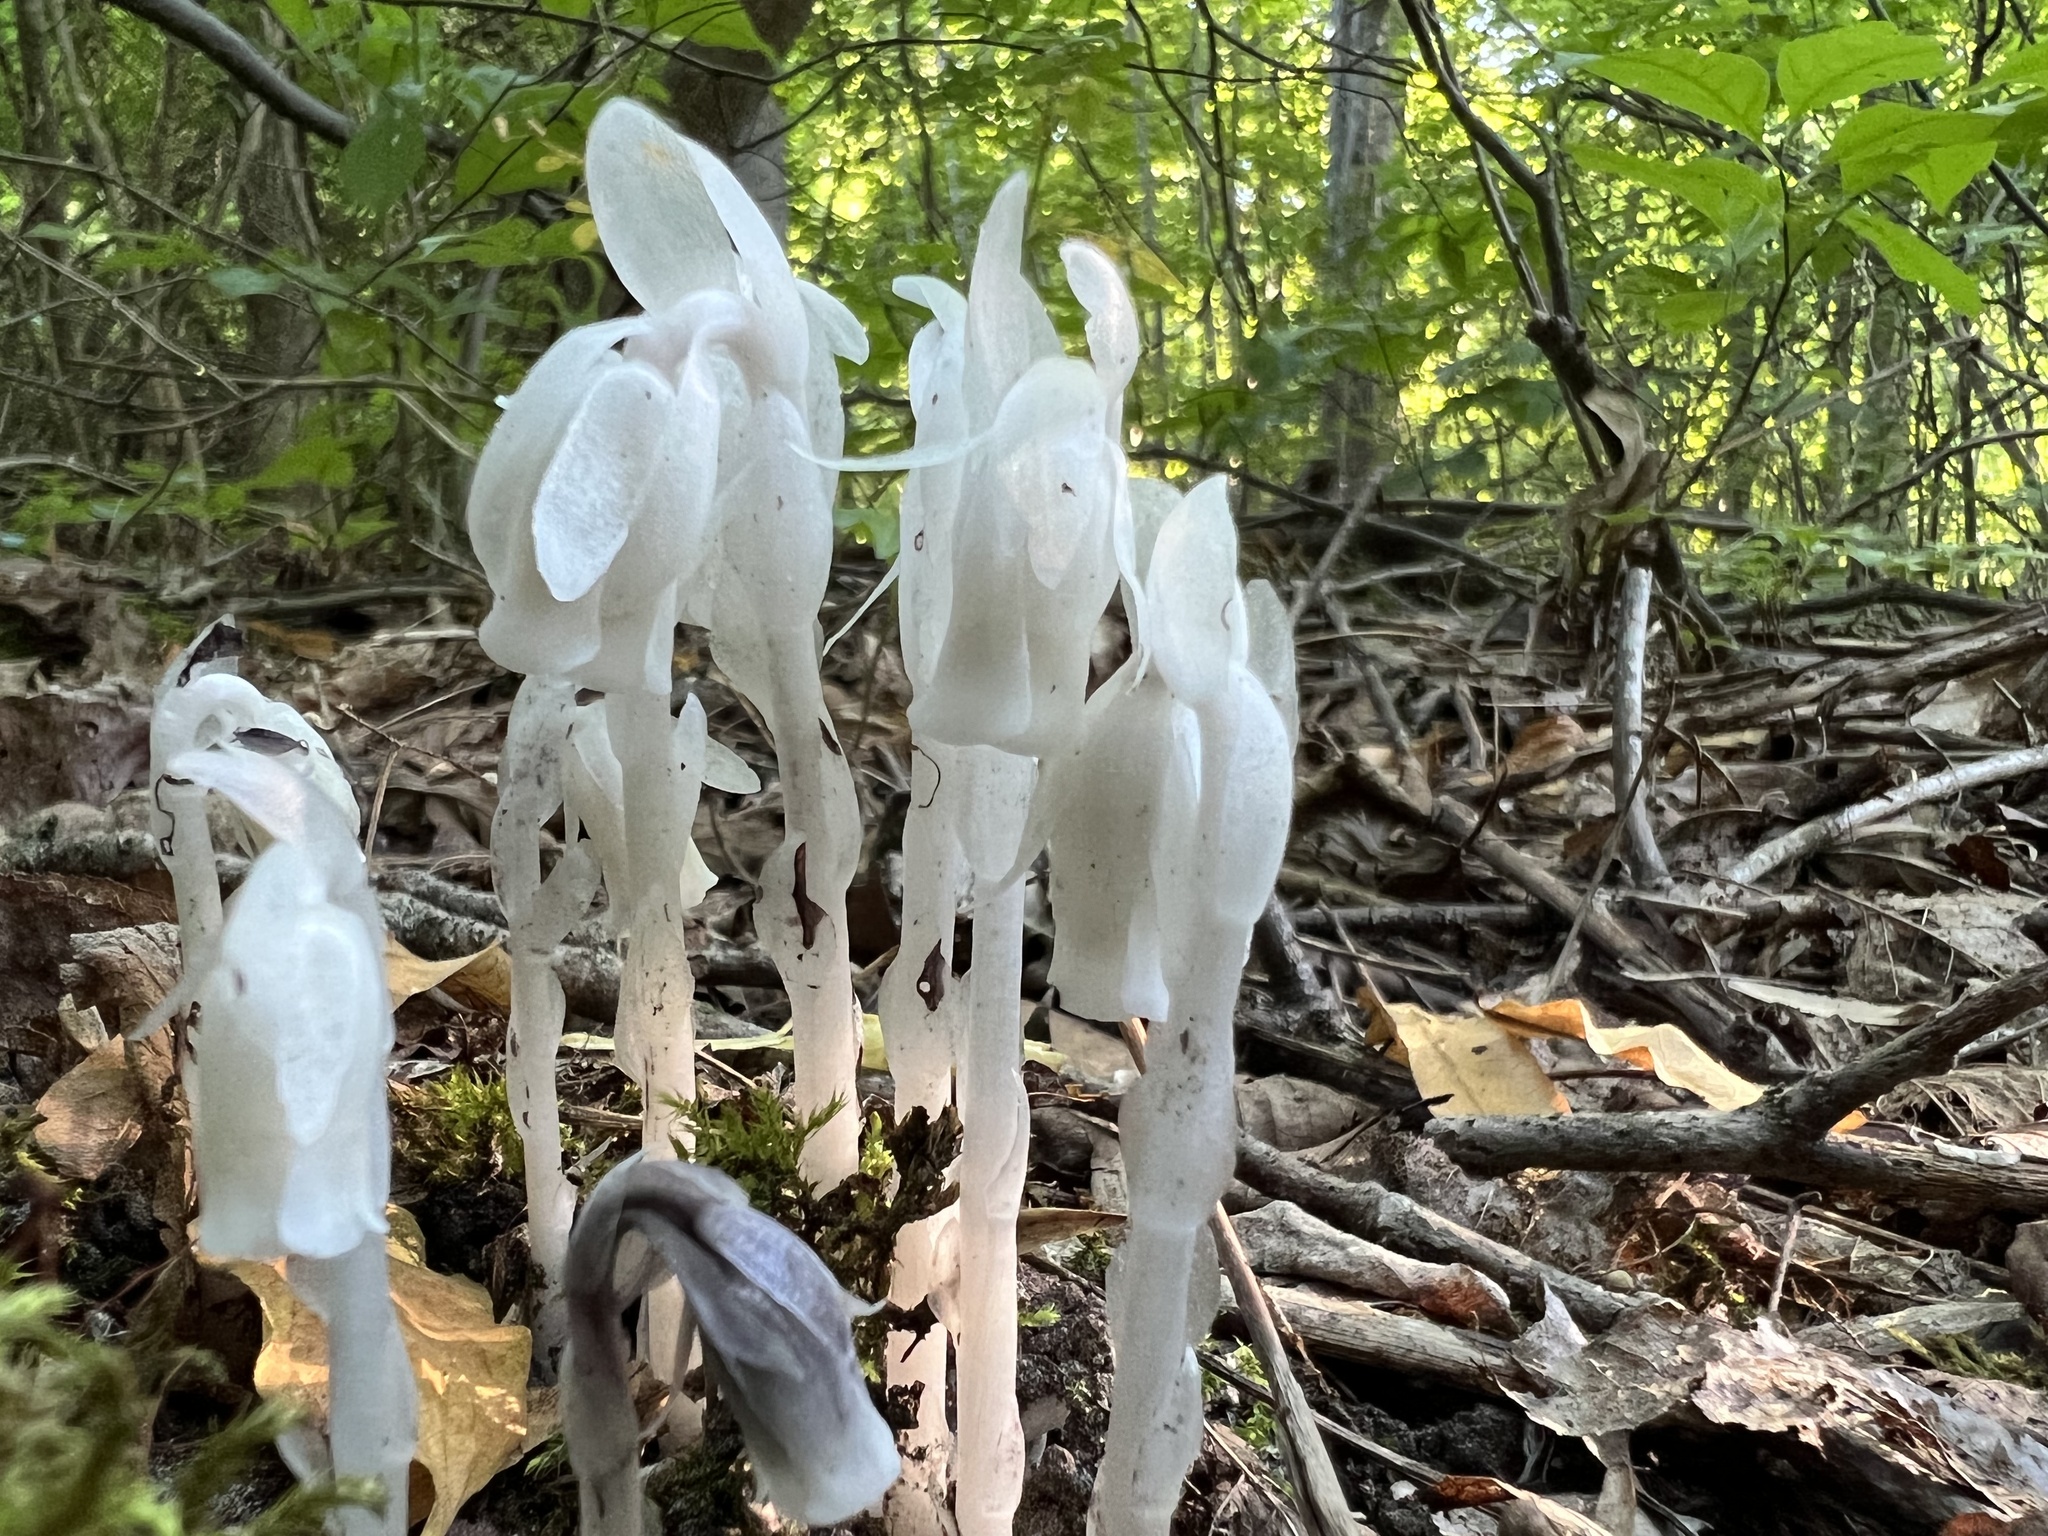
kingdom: Plantae
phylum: Tracheophyta
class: Magnoliopsida
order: Ericales
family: Ericaceae
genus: Monotropa
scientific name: Monotropa uniflora
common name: Convulsion root
